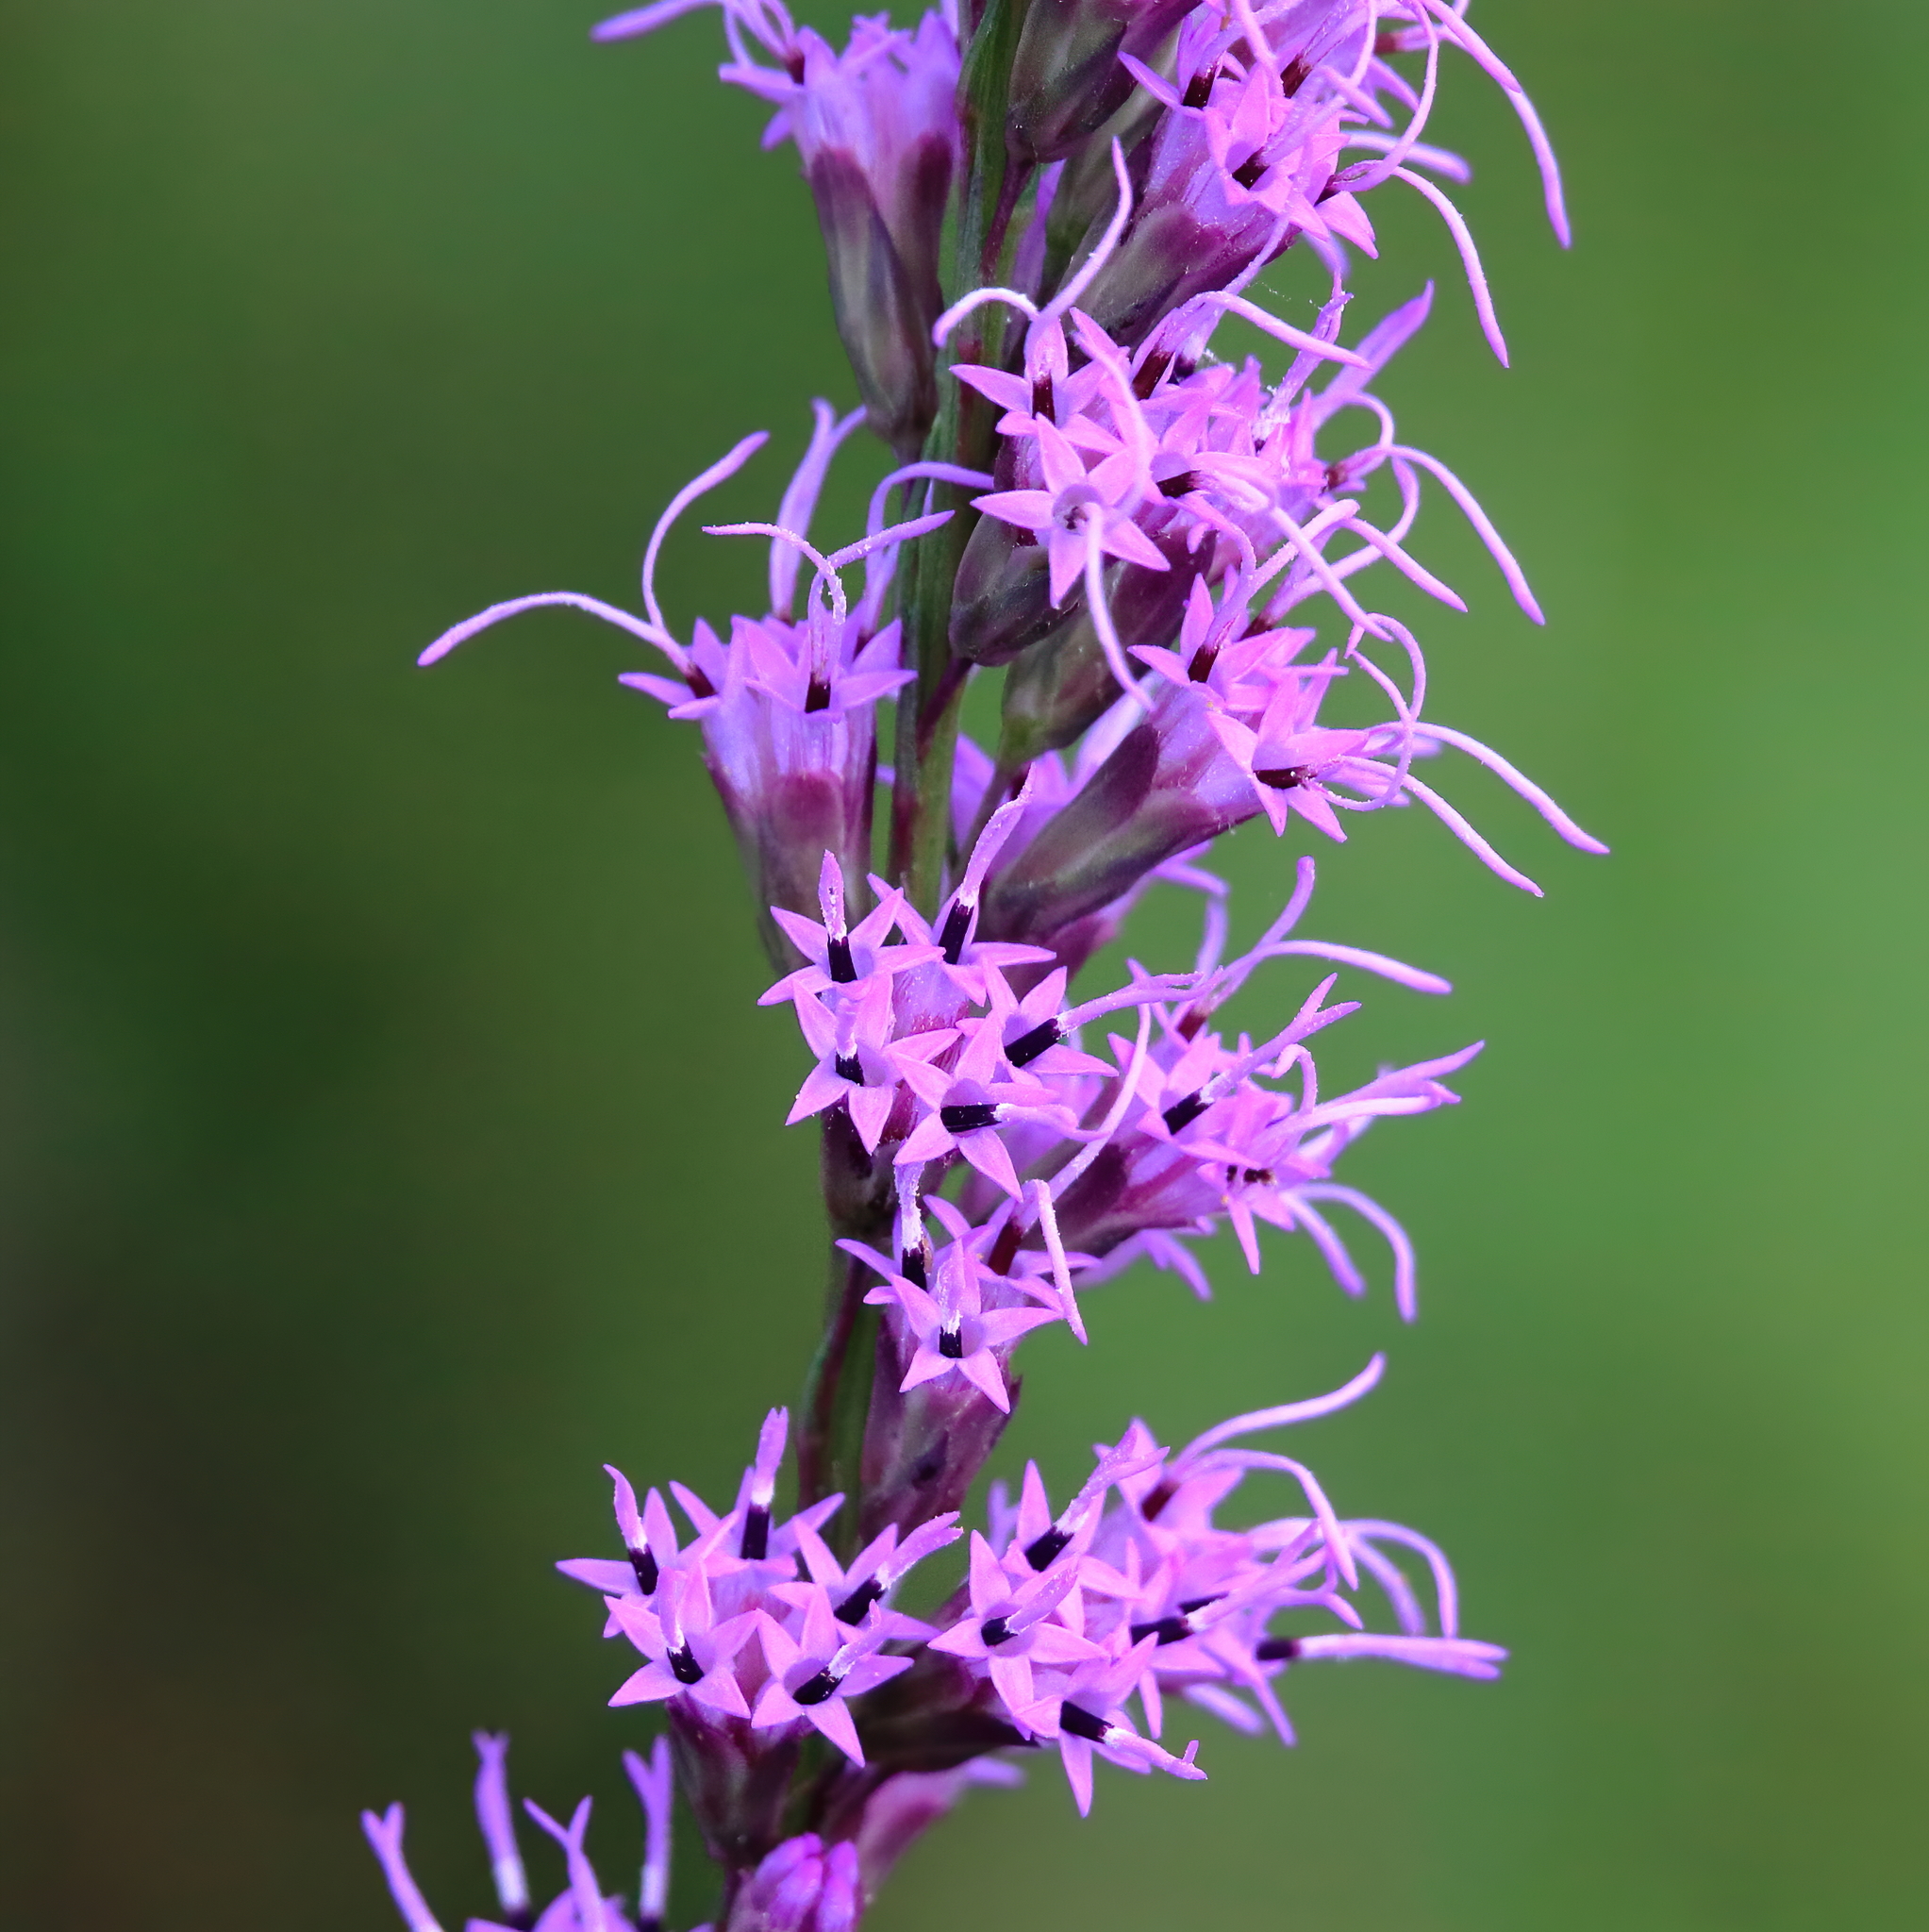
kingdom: Plantae
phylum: Tracheophyta
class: Magnoliopsida
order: Asterales
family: Asteraceae
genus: Liatris
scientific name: Liatris spicata
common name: Florist gayfeather
